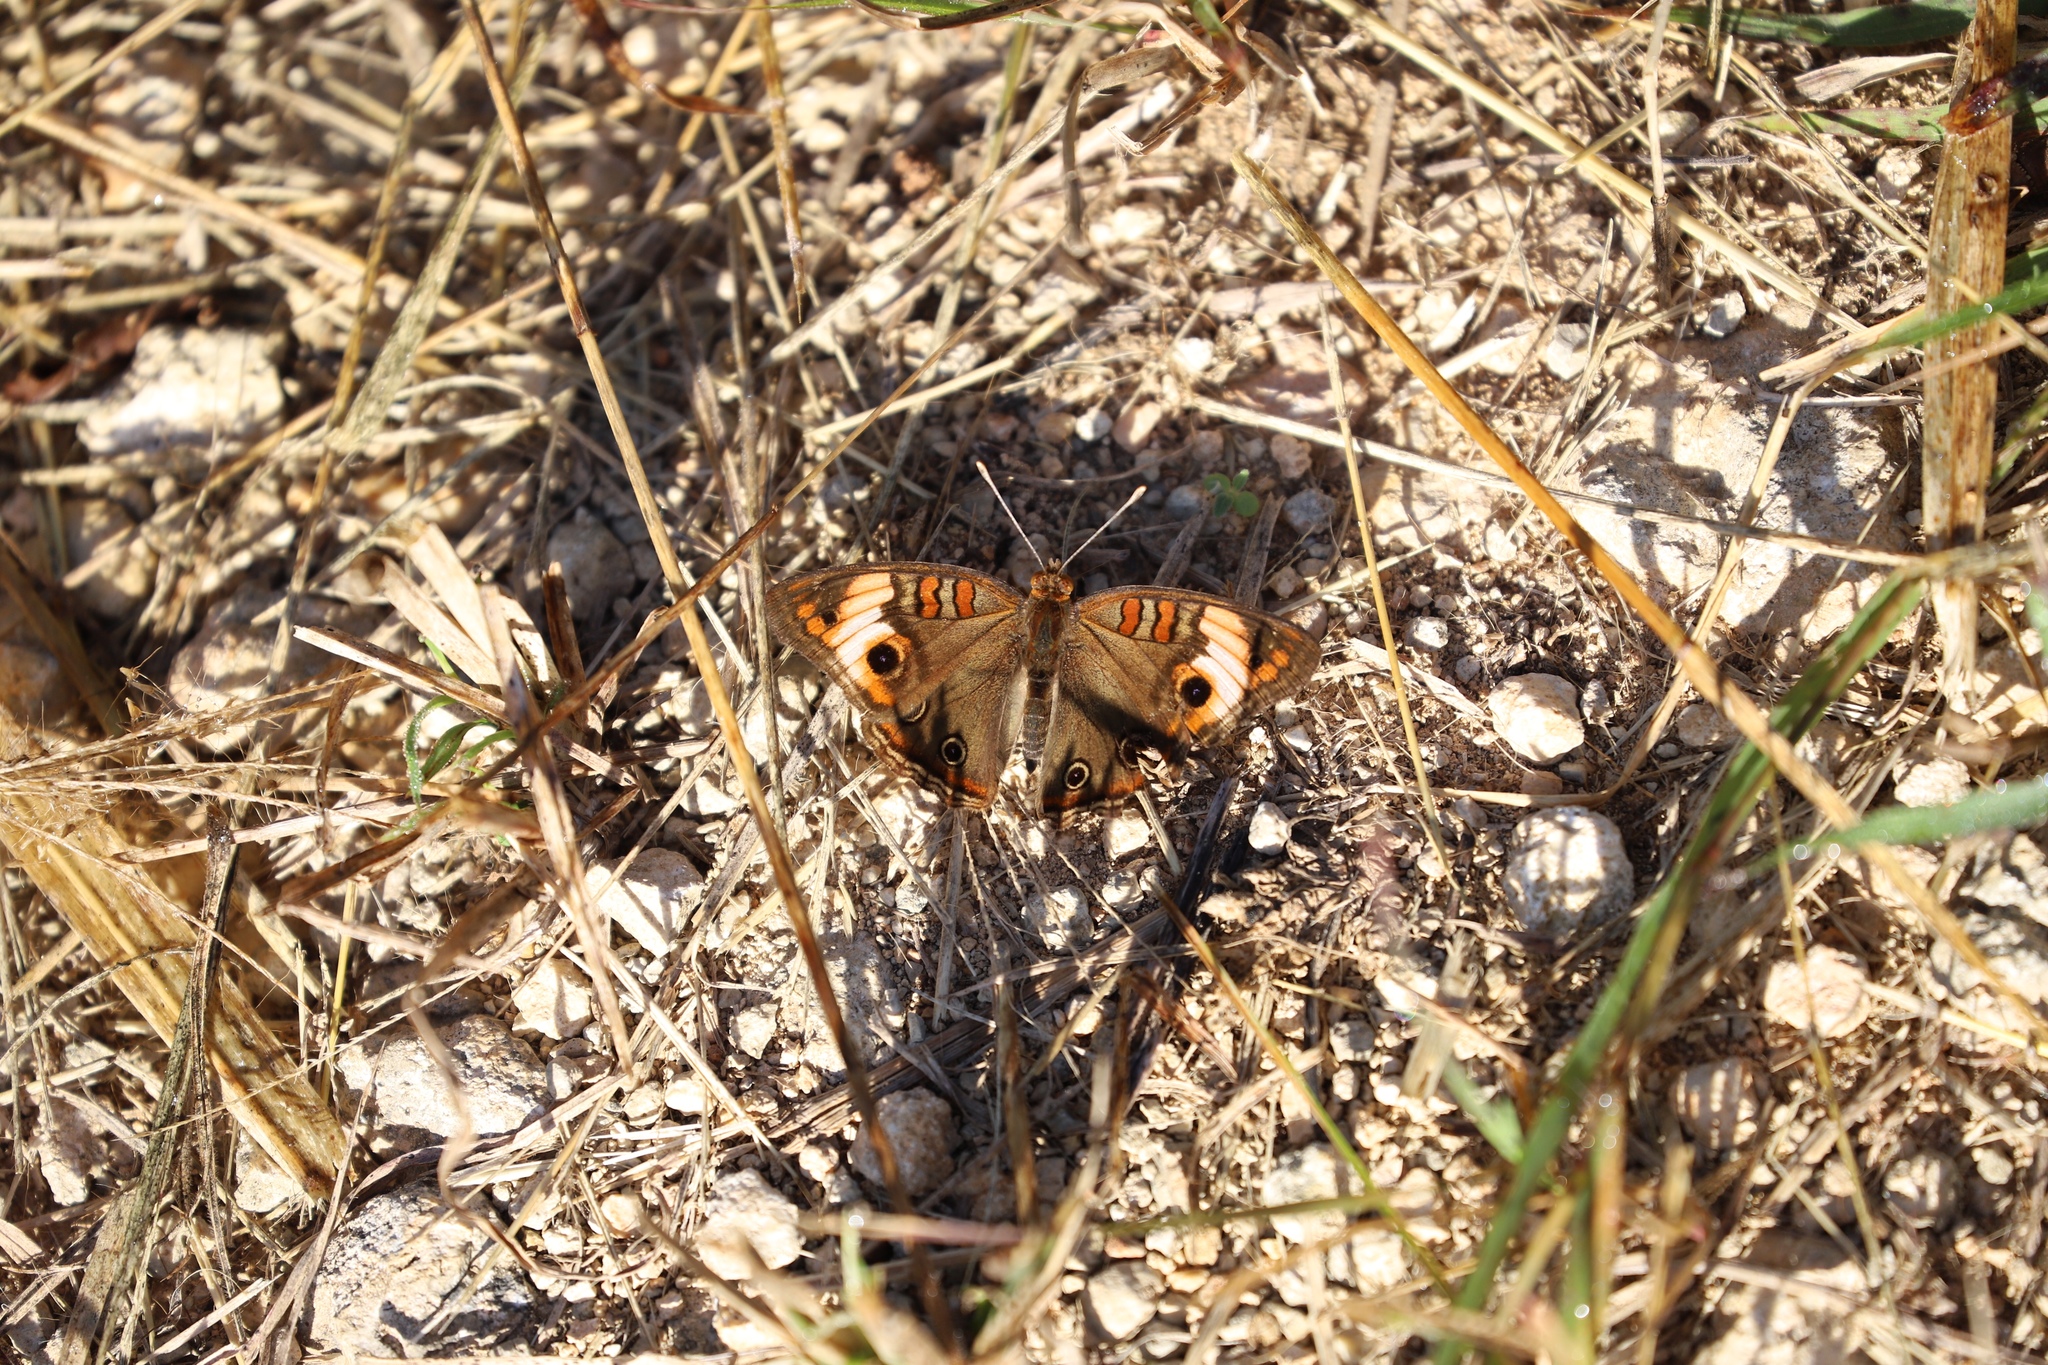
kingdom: Animalia
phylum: Arthropoda
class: Insecta
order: Lepidoptera
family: Nymphalidae
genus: Junonia
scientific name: Junonia lavinia
